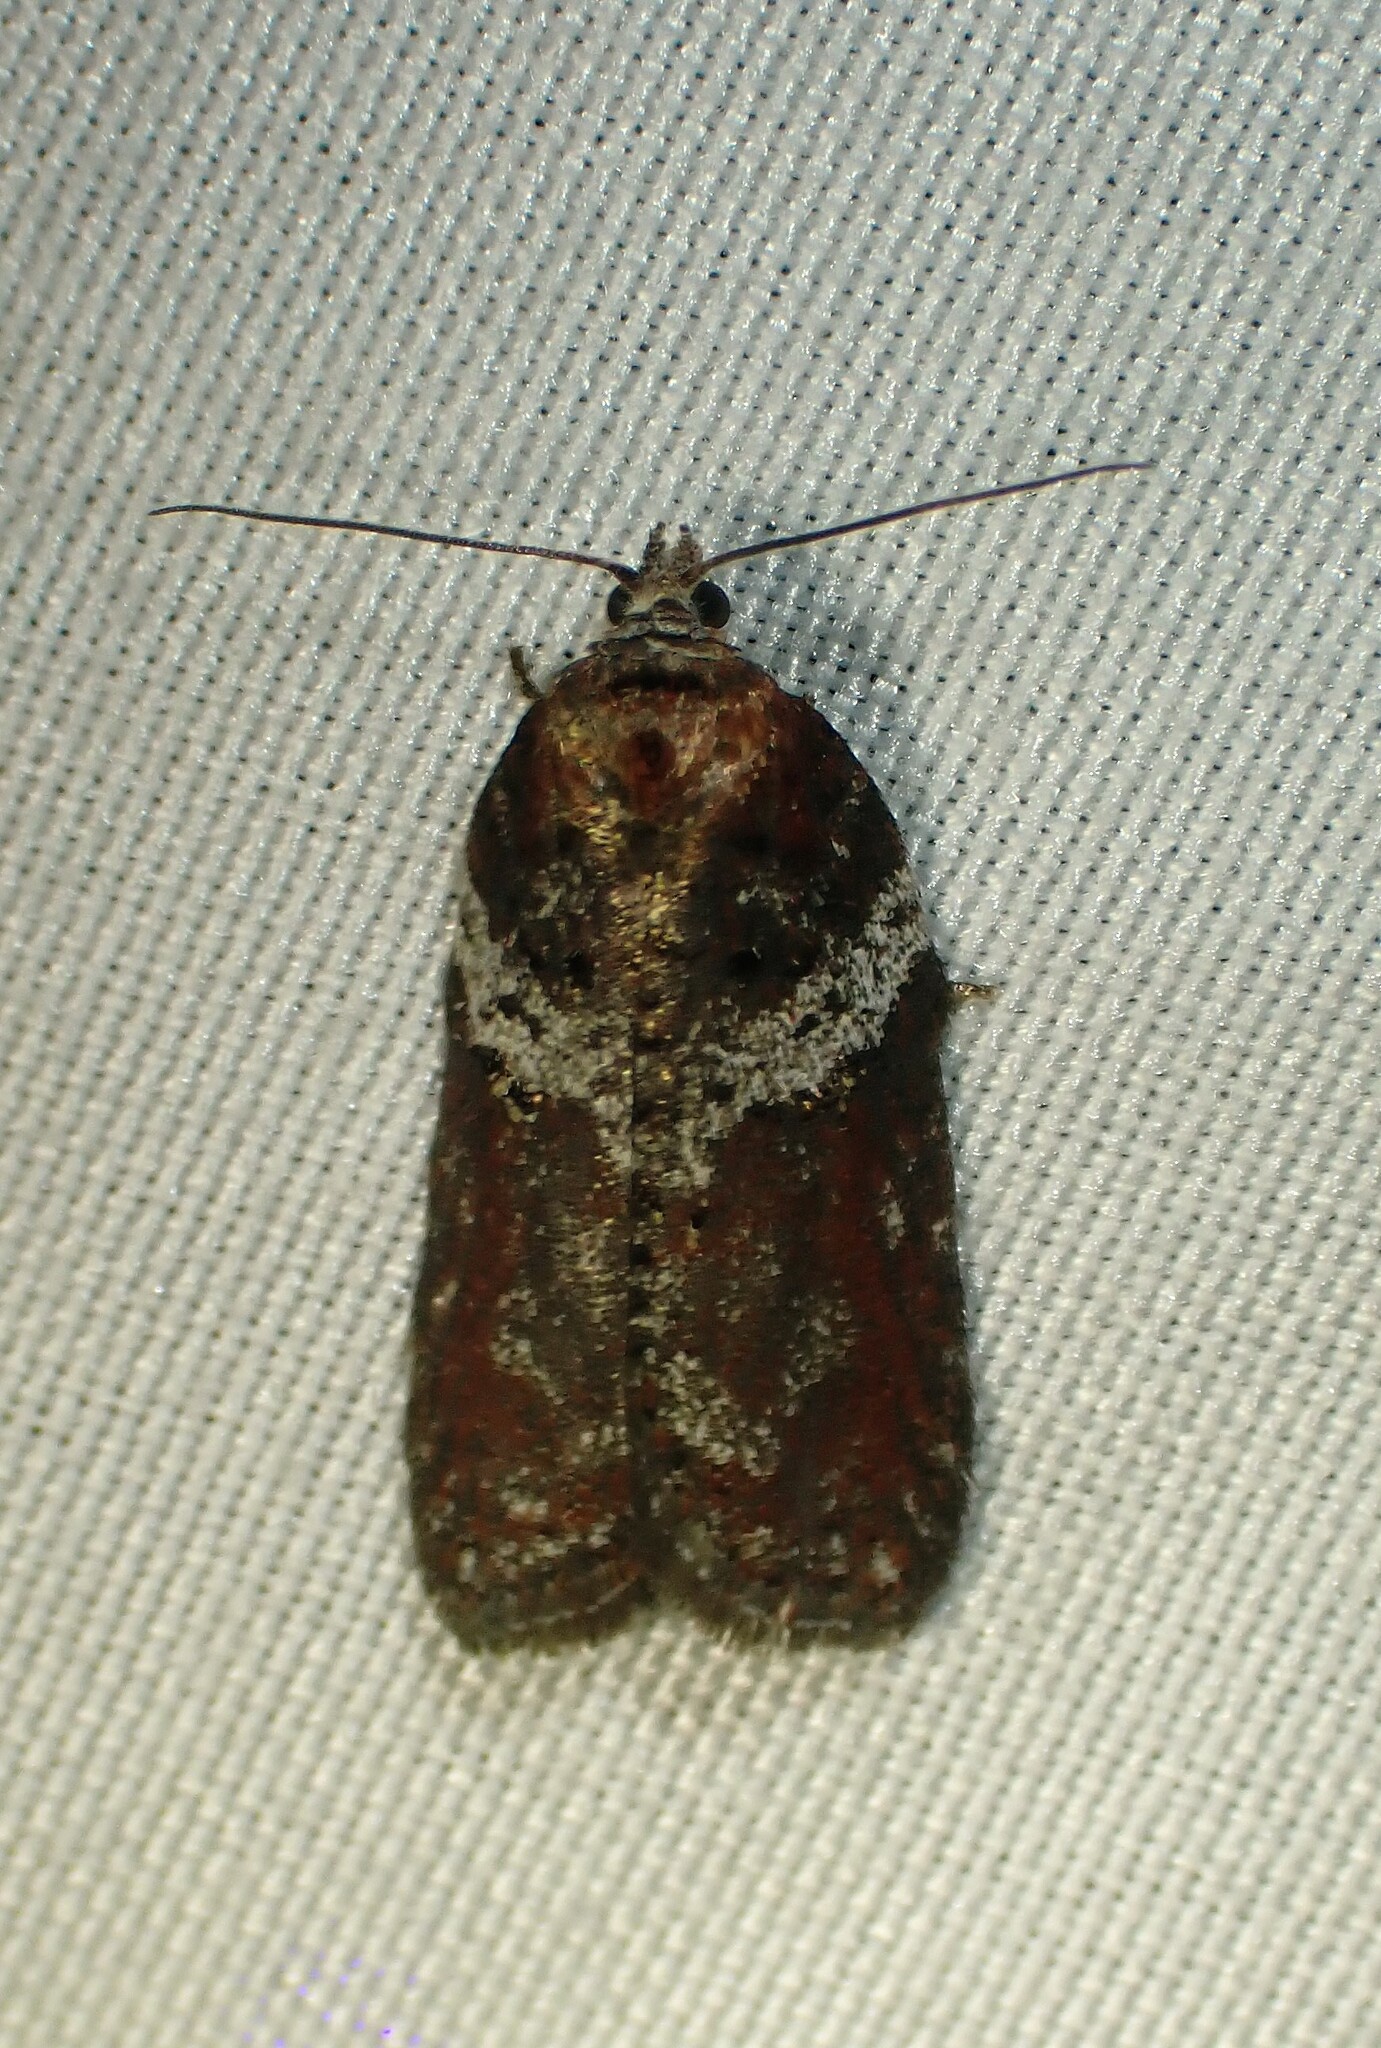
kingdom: Animalia
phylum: Arthropoda
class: Insecta
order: Lepidoptera
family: Tortricidae
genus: Acleris
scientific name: Acleris celiana
